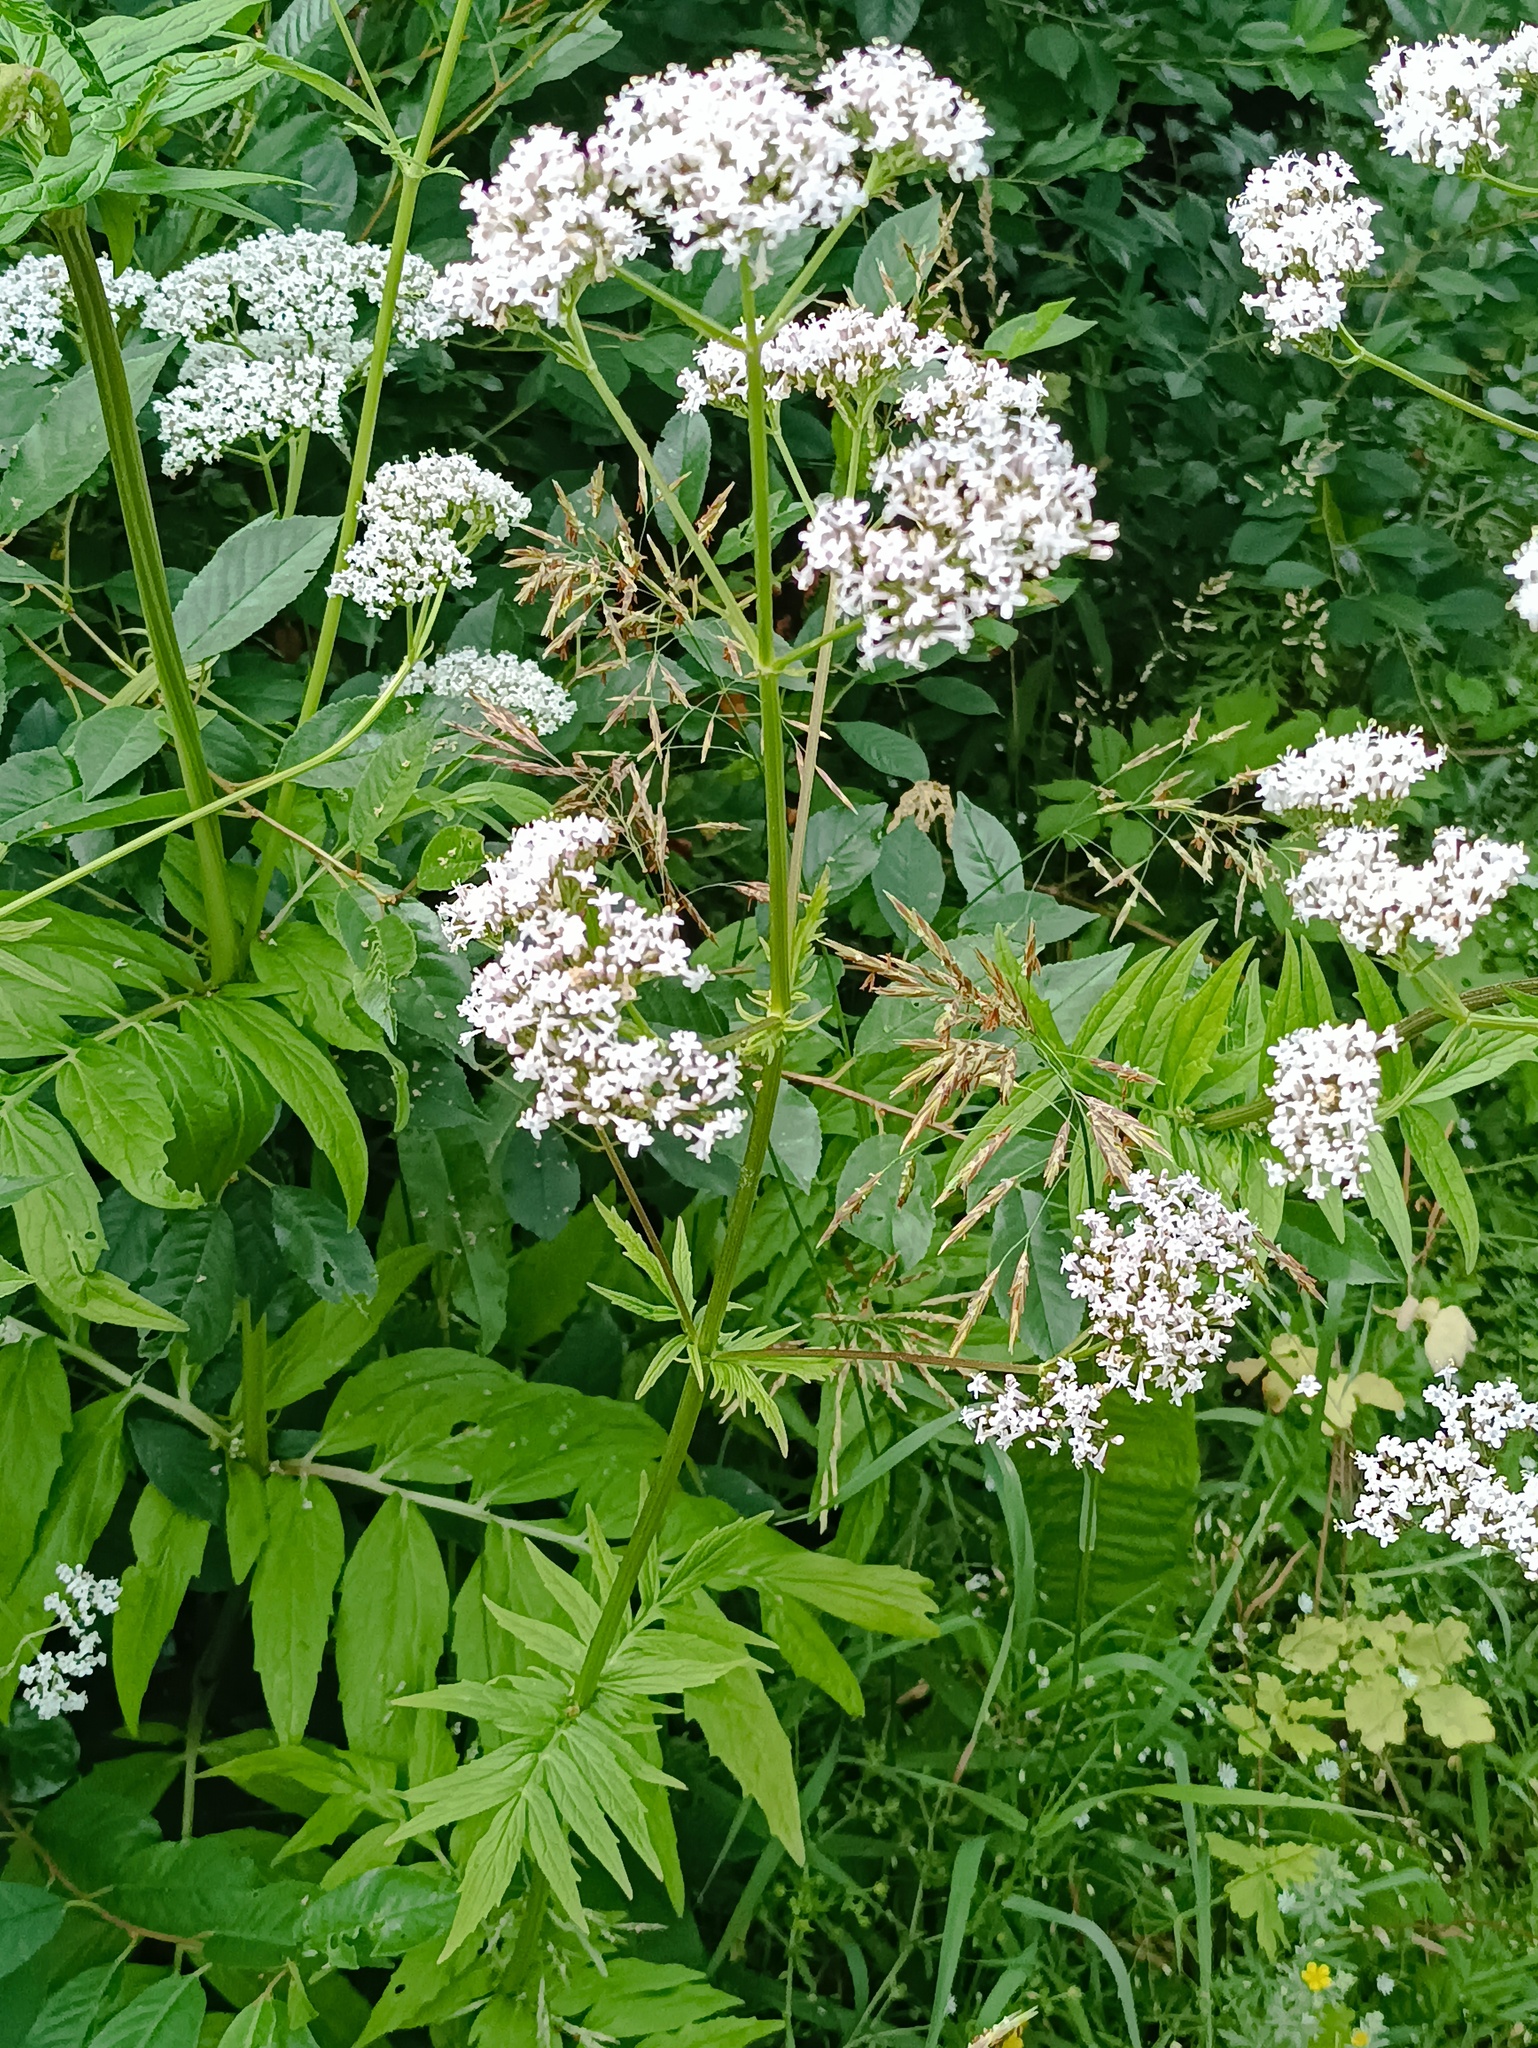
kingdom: Plantae
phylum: Tracheophyta
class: Magnoliopsida
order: Dipsacales
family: Caprifoliaceae
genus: Valeriana
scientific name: Valeriana officinalis
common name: Common valerian
